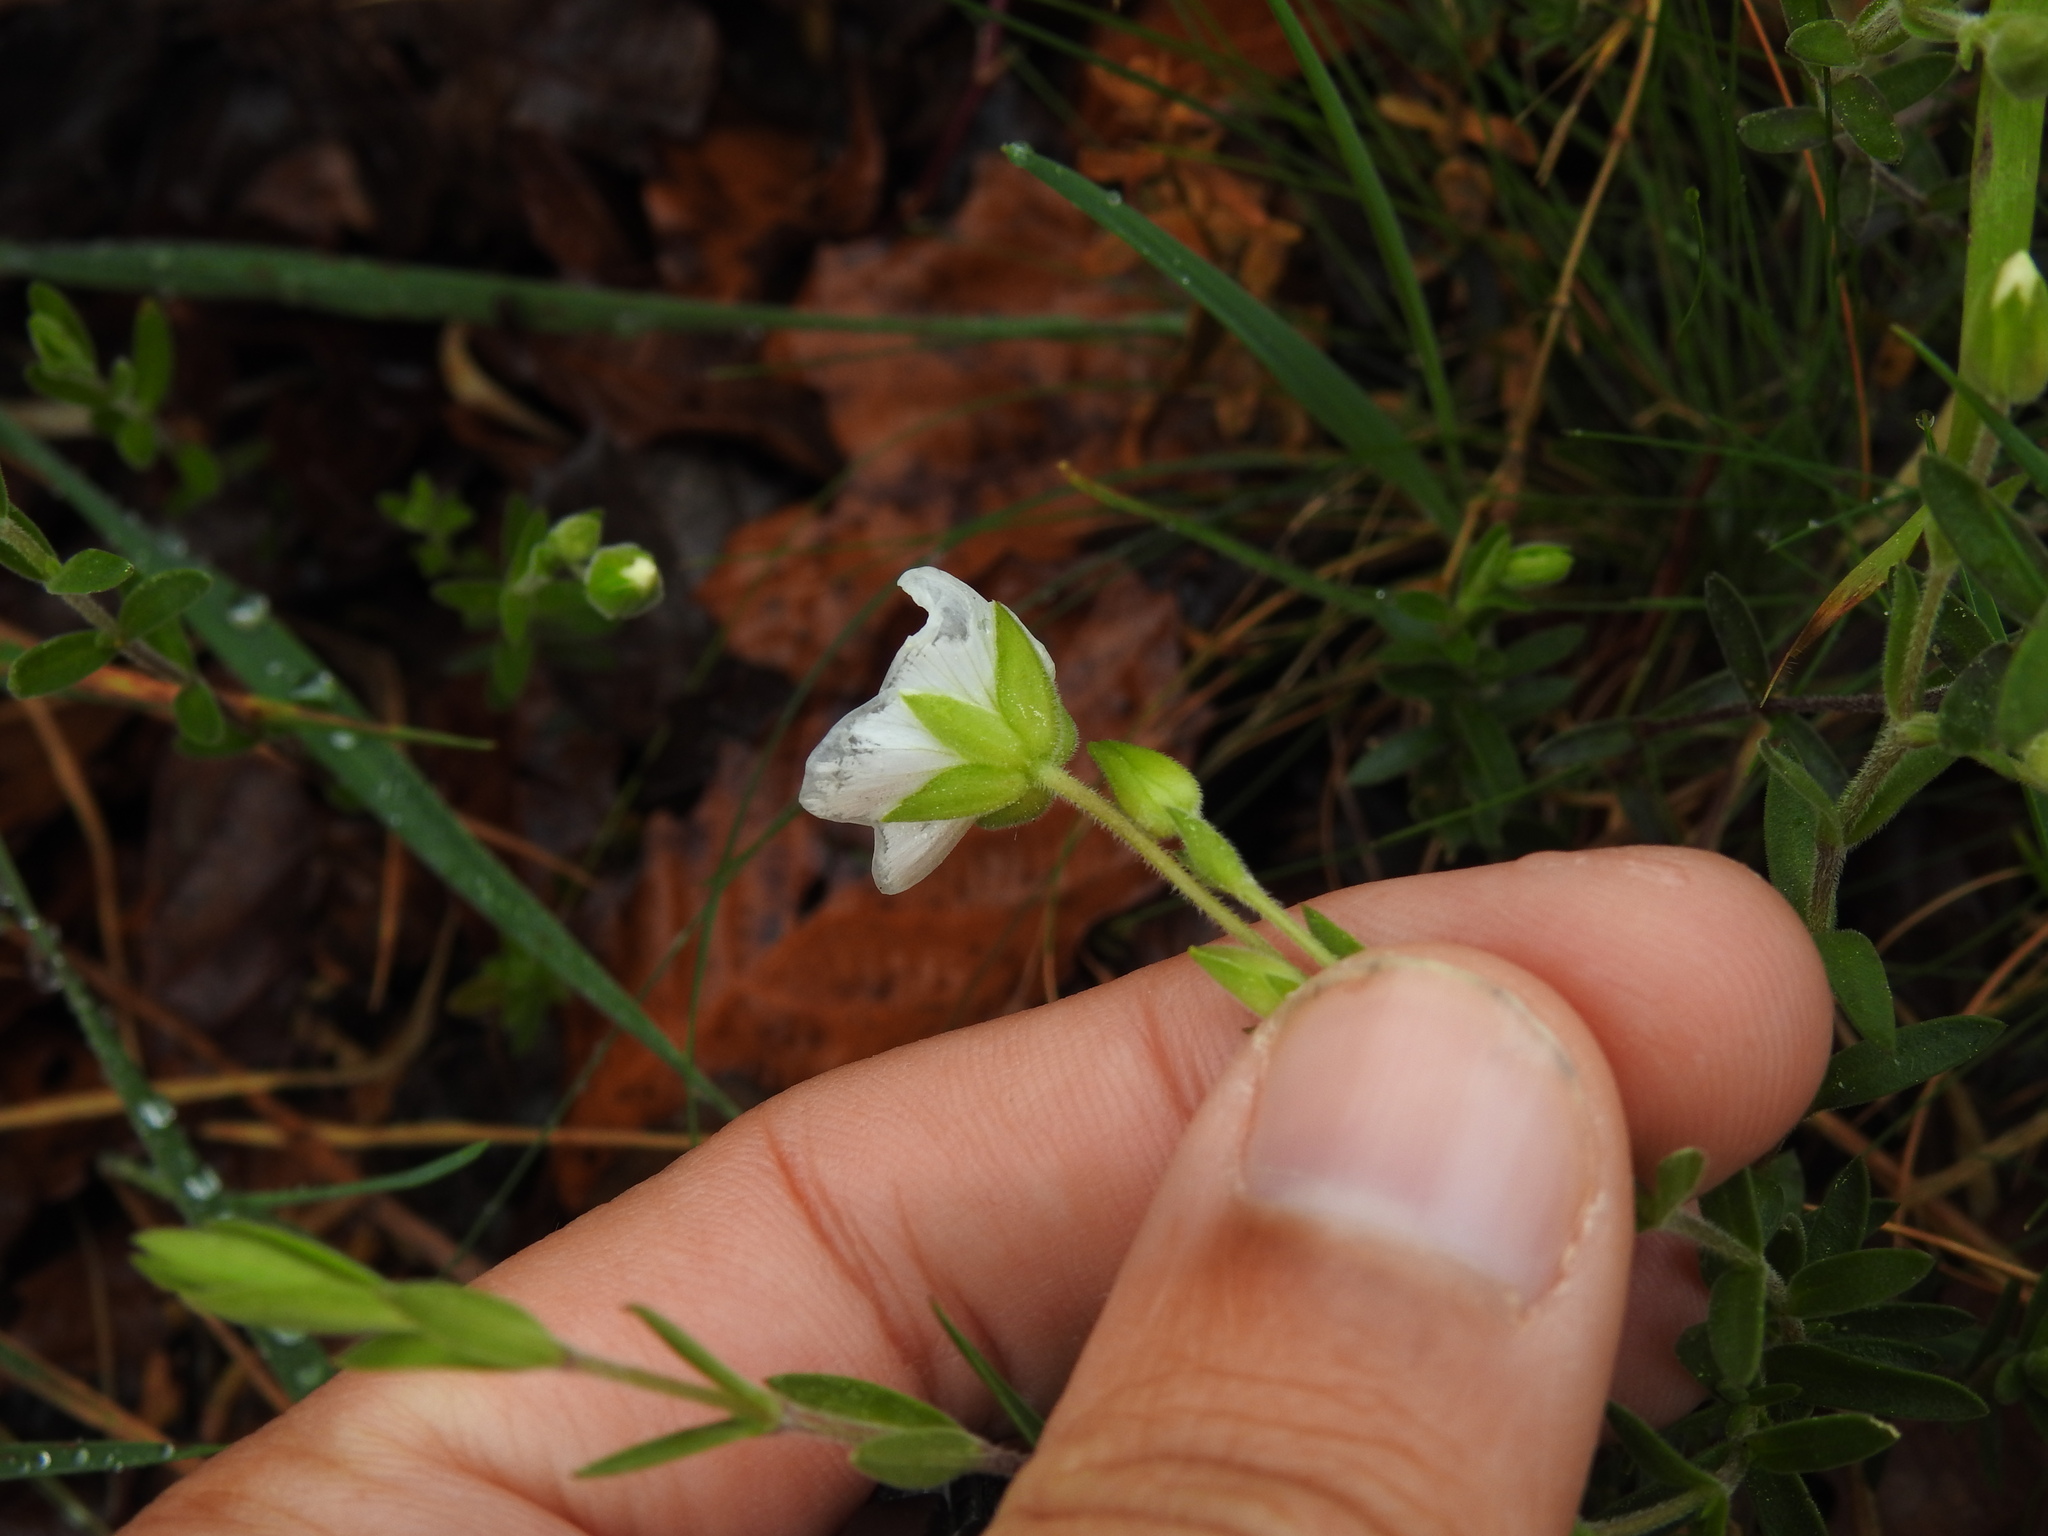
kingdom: Plantae
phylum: Tracheophyta
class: Magnoliopsida
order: Caryophyllales
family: Caryophyllaceae
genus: Arenaria
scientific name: Arenaria montana
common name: Mountain sandwort
